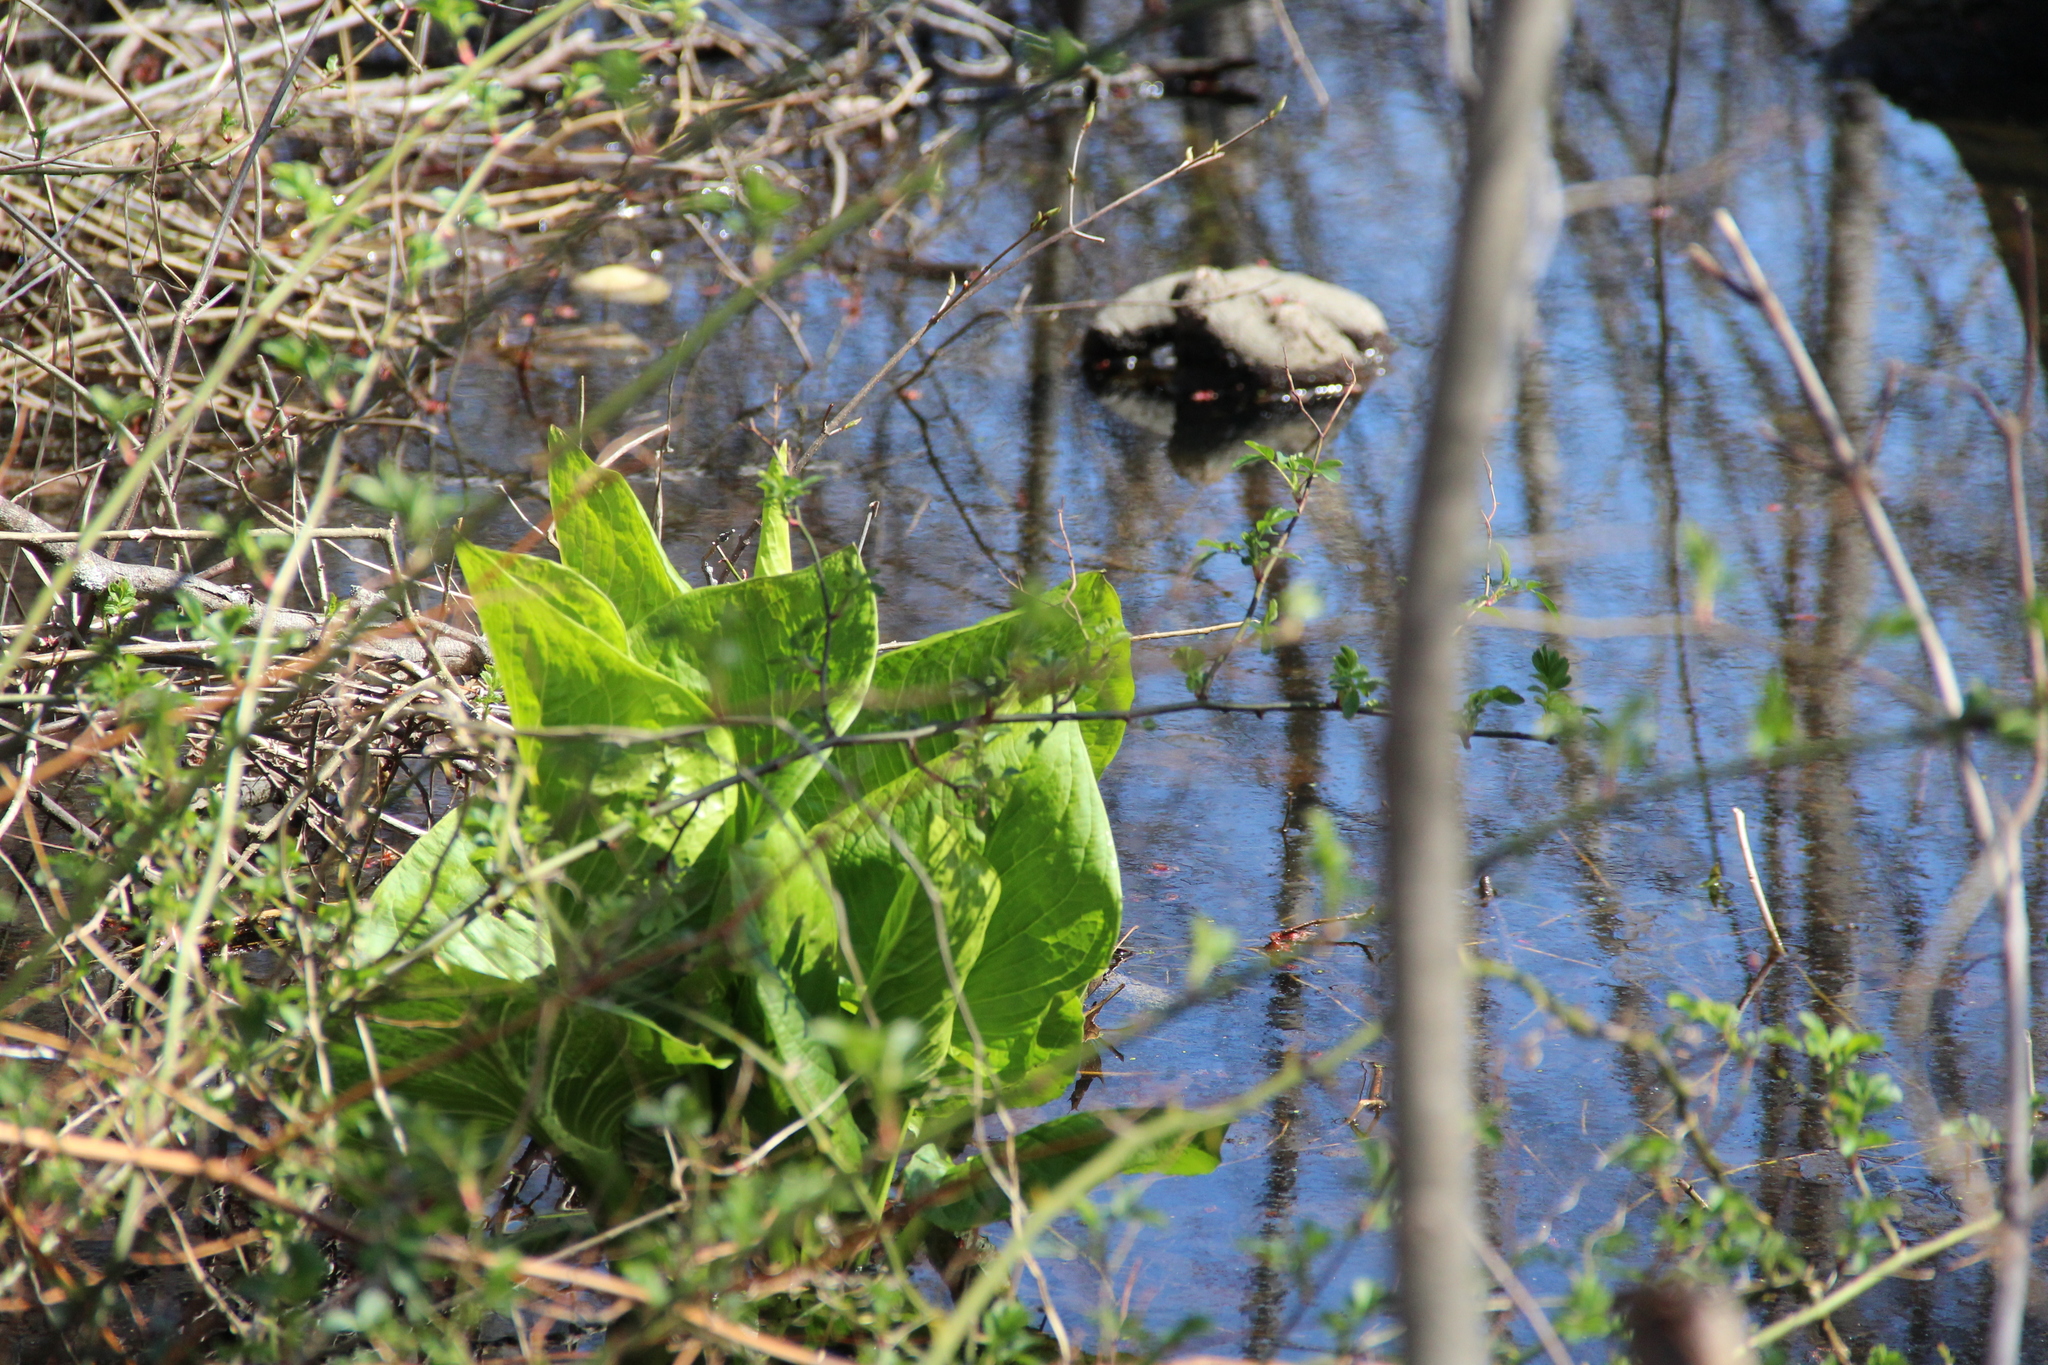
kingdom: Plantae
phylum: Tracheophyta
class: Liliopsida
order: Alismatales
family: Araceae
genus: Symplocarpus
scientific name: Symplocarpus foetidus
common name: Eastern skunk cabbage
